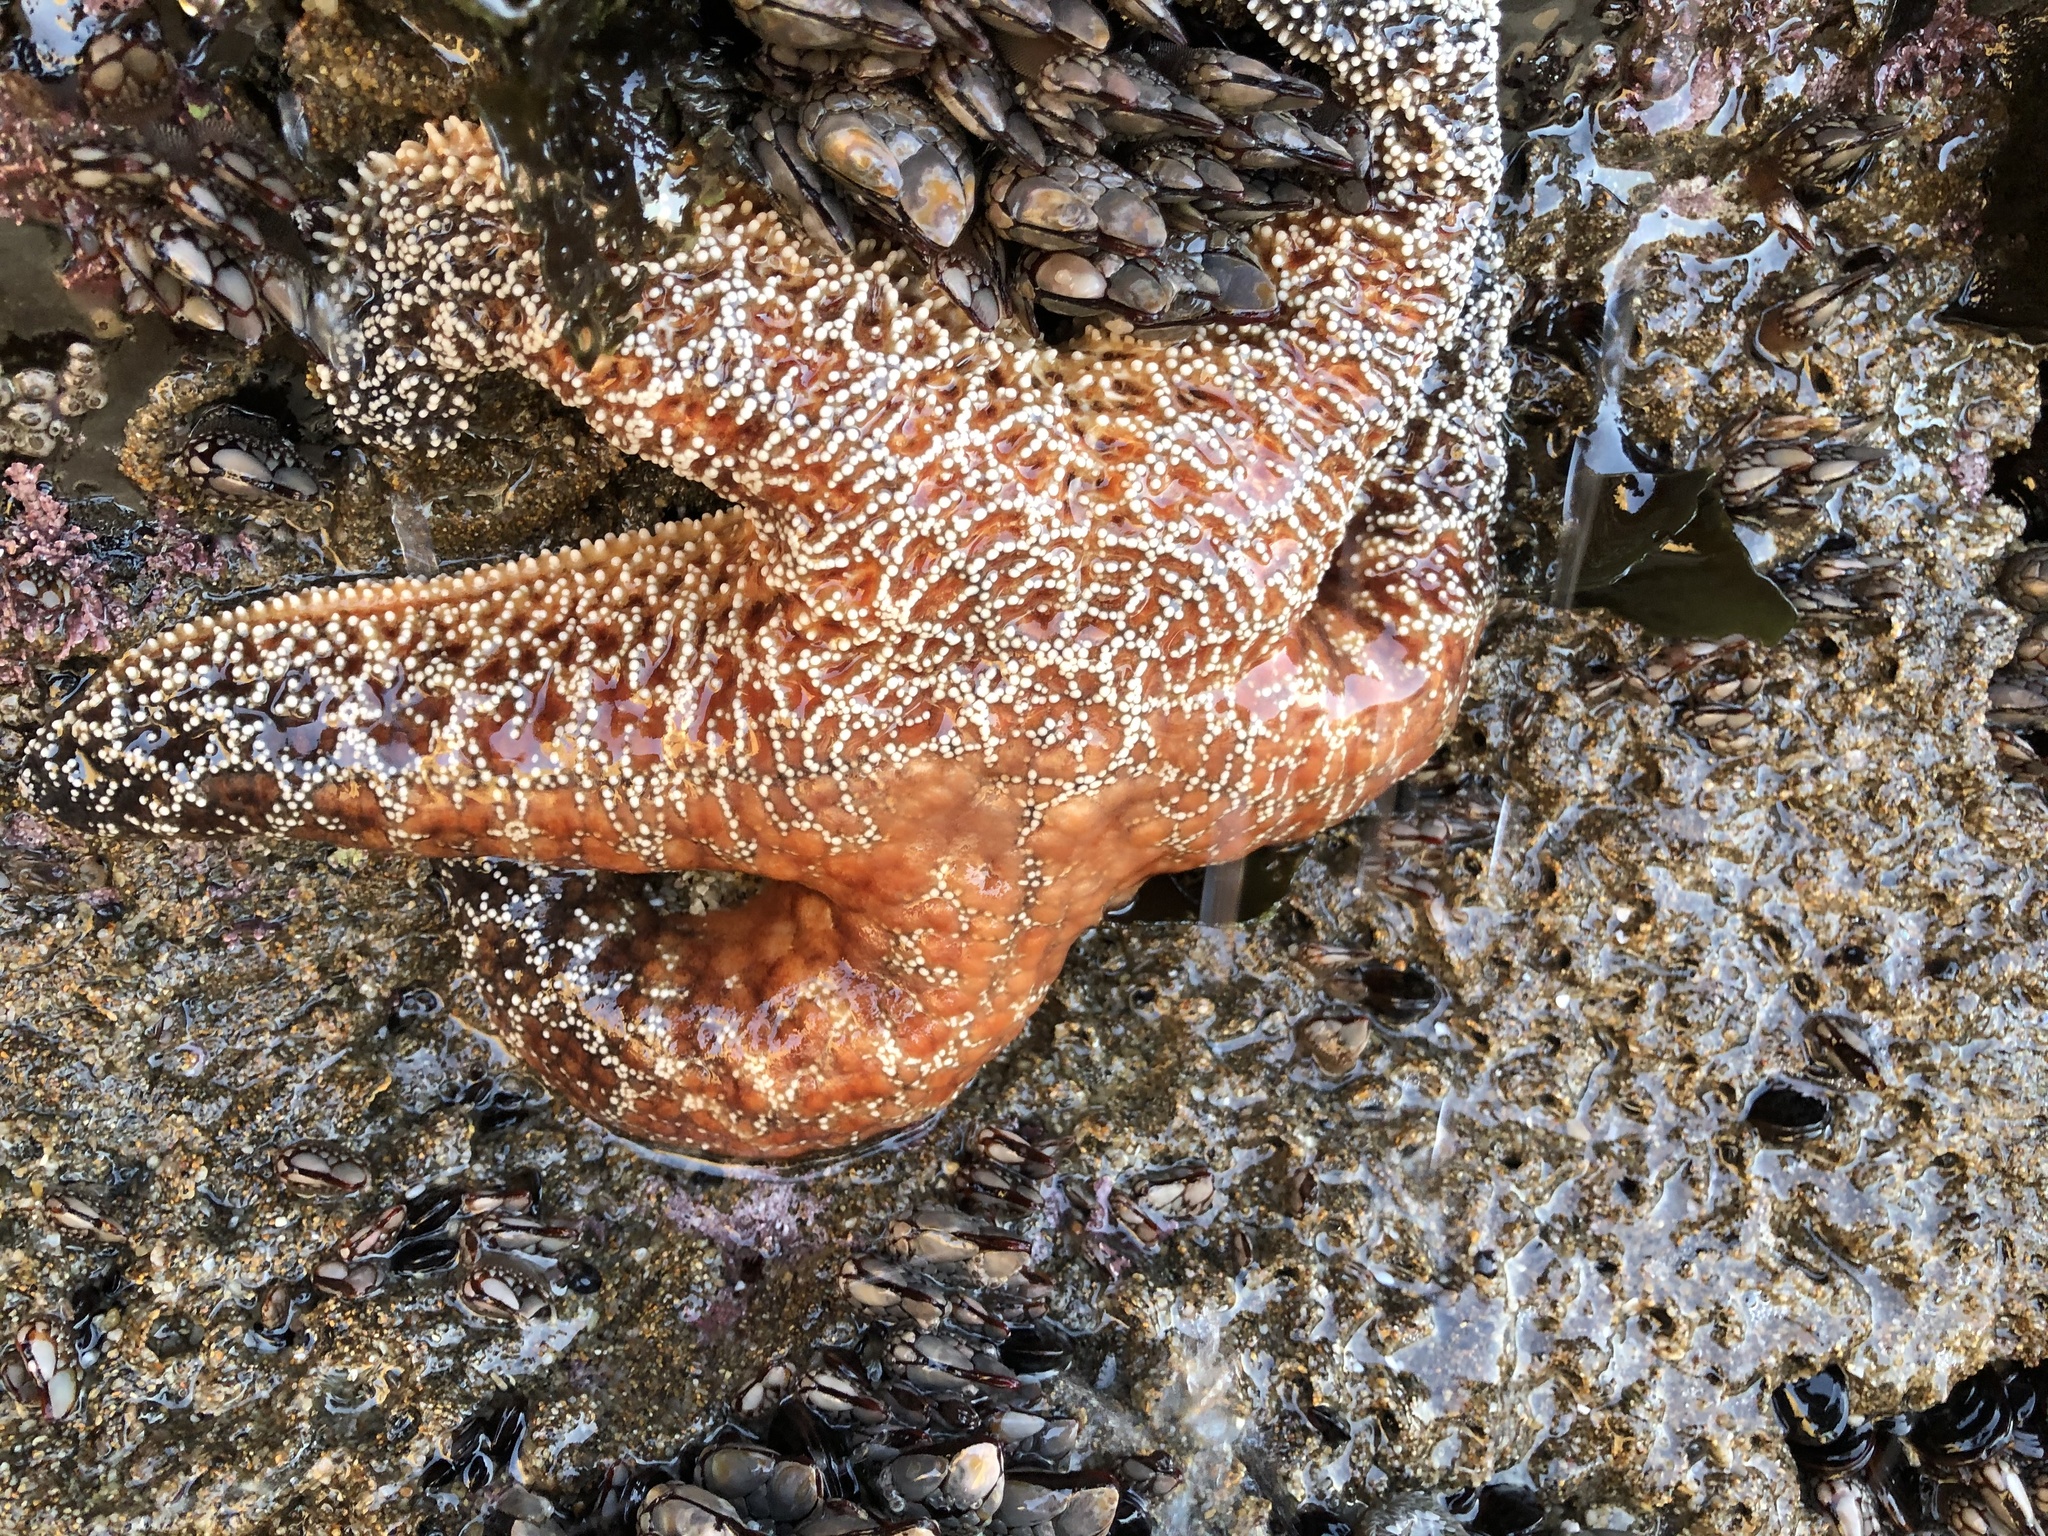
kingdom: Animalia
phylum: Echinodermata
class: Asteroidea
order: Forcipulatida
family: Asteriidae
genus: Pisaster
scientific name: Pisaster ochraceus
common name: Ochre stars
